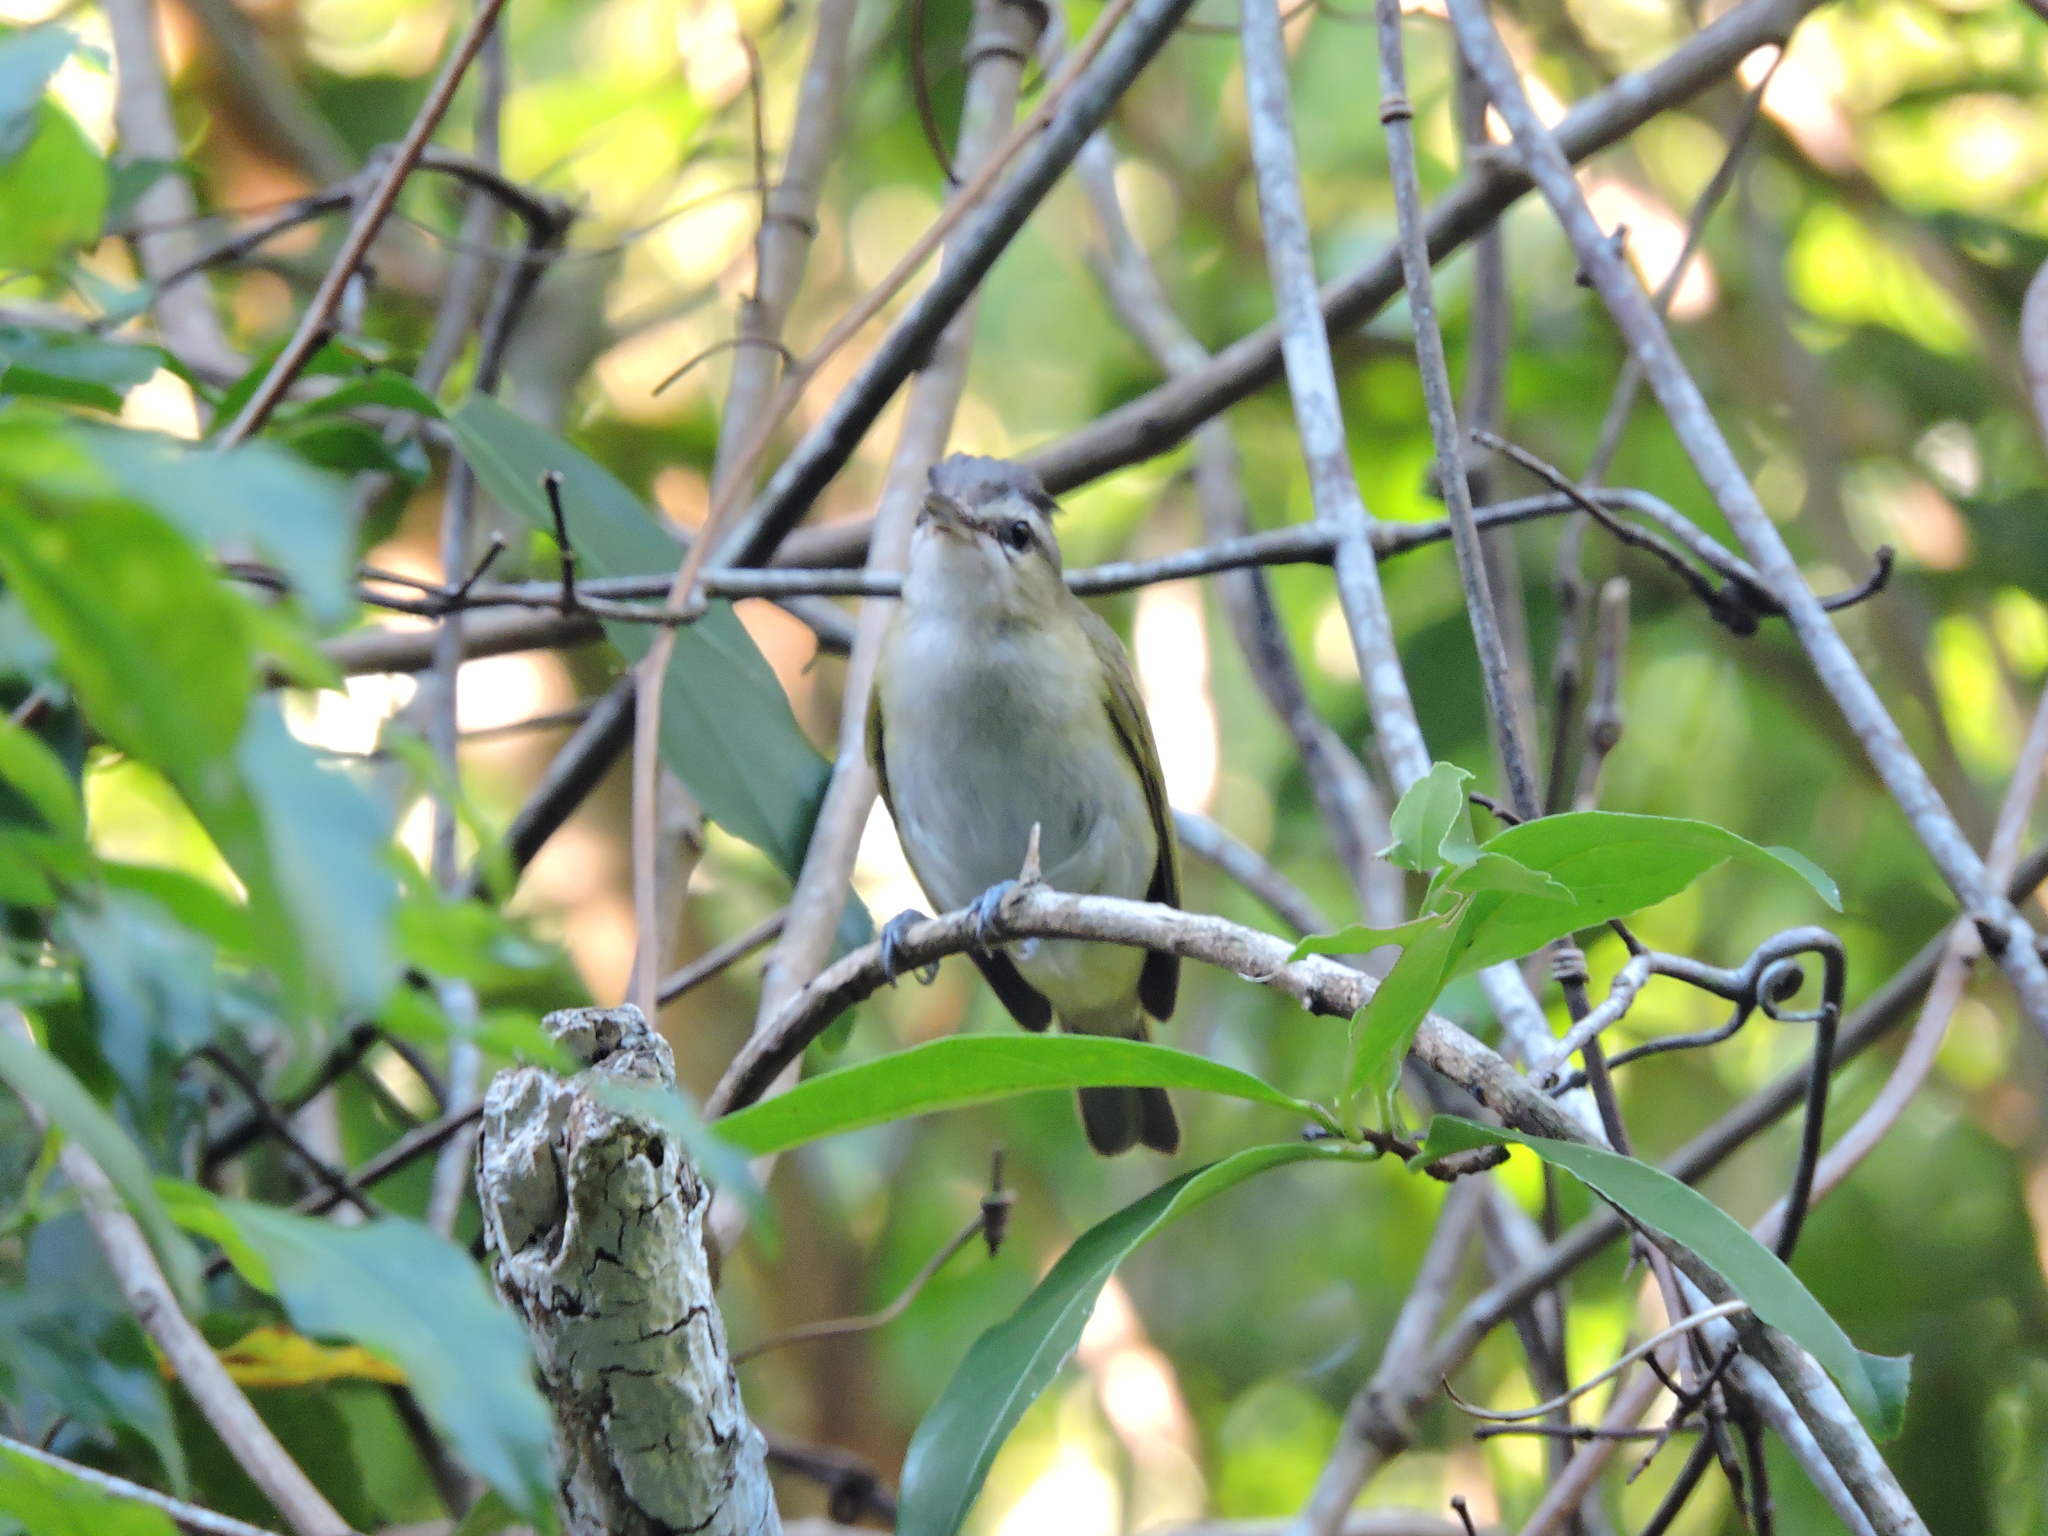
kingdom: Animalia
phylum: Chordata
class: Aves
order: Passeriformes
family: Vireonidae
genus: Vireo
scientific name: Vireo olivaceus
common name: Red-eyed vireo
